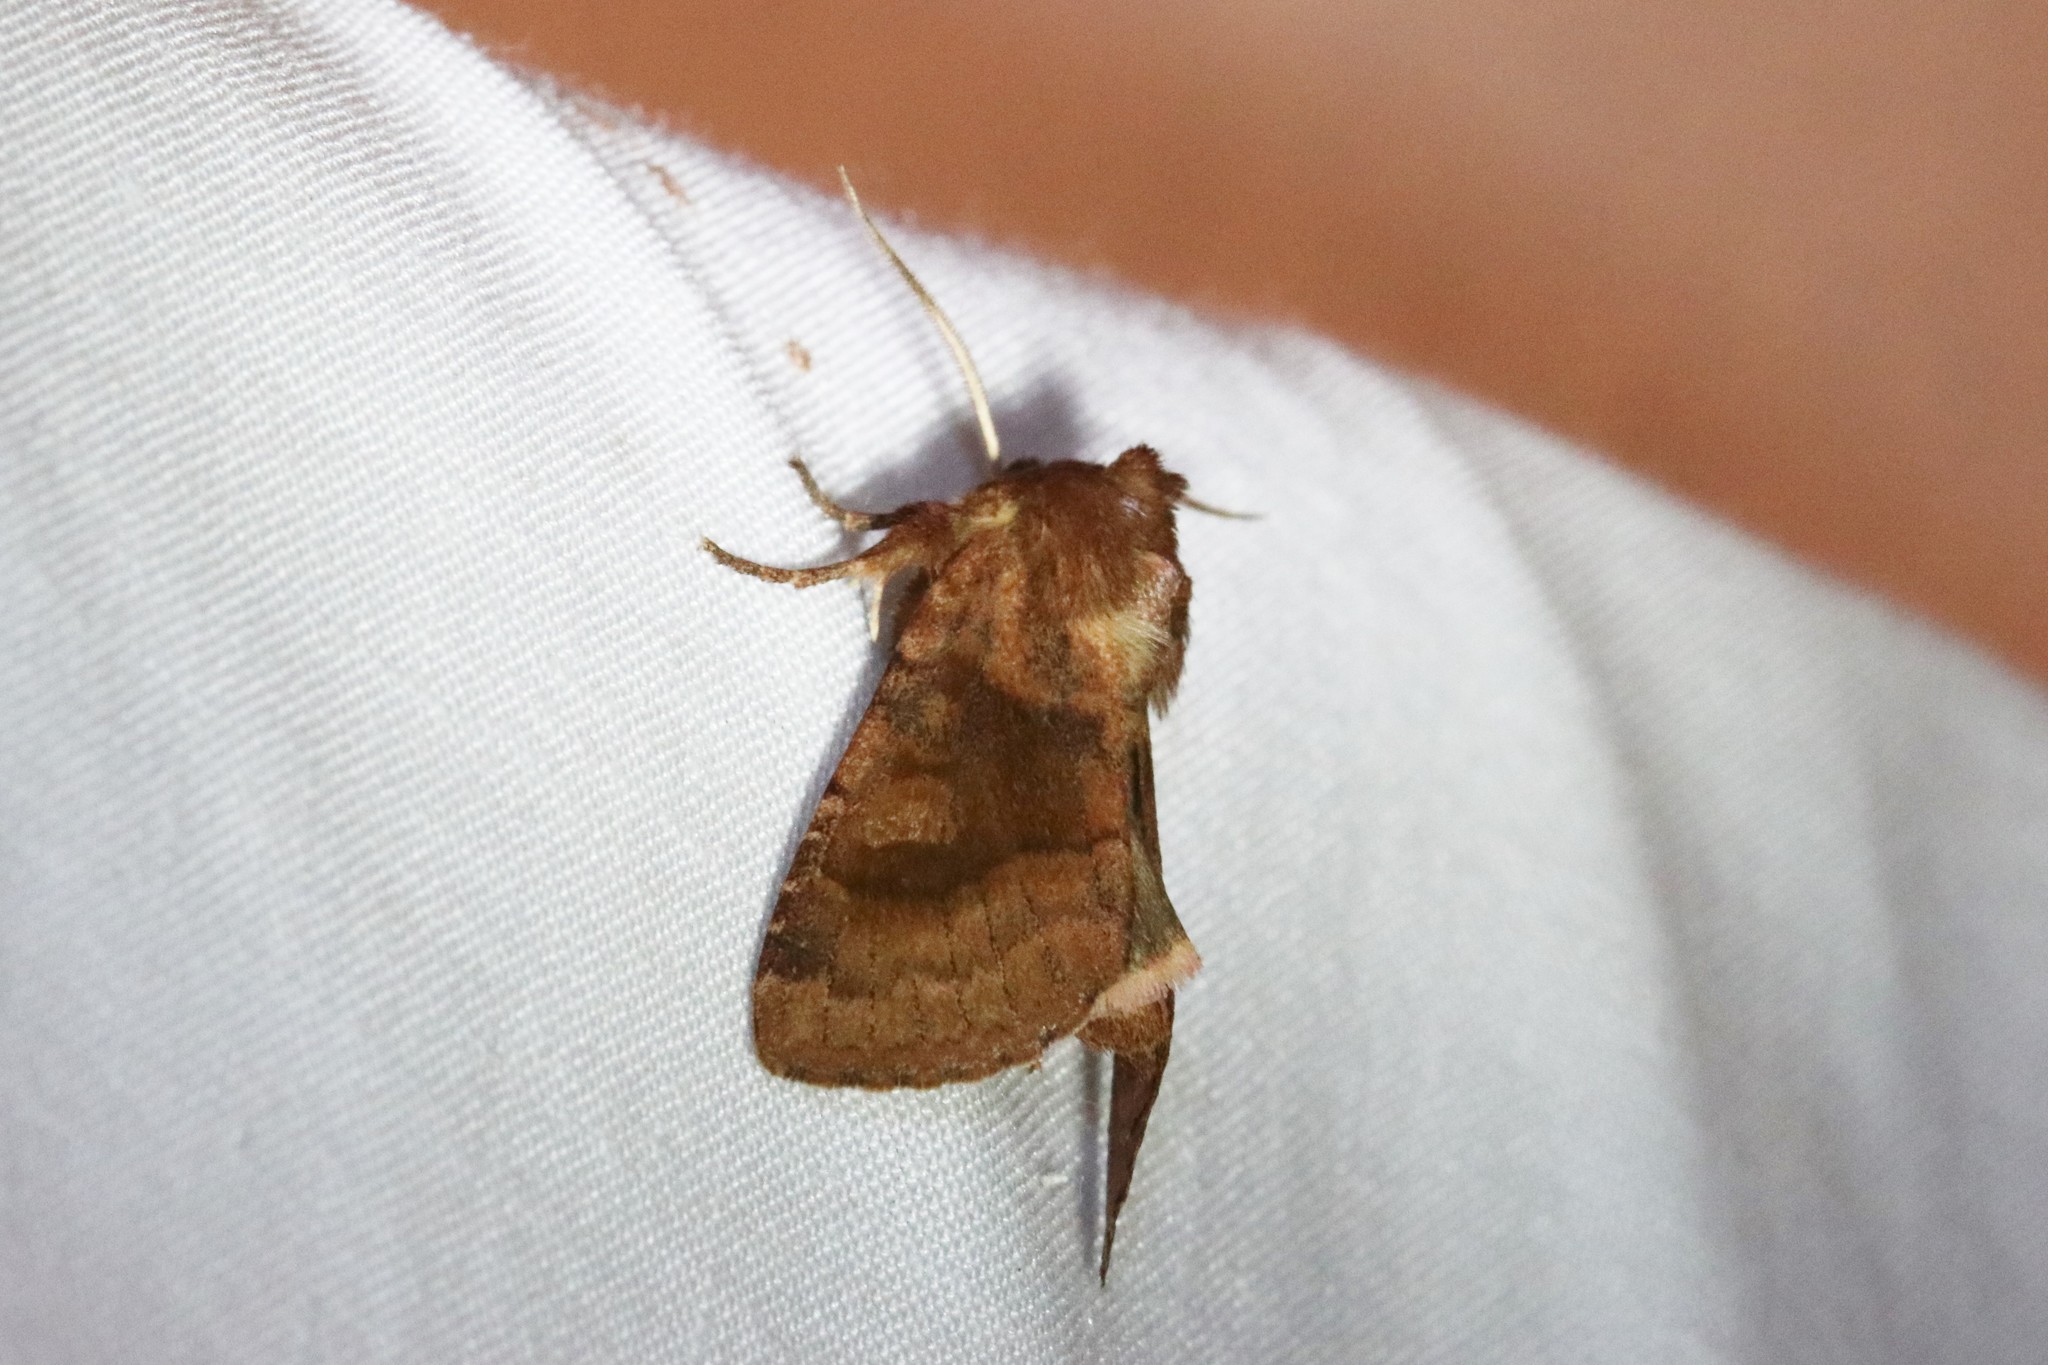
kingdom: Animalia
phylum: Arthropoda
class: Insecta
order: Lepidoptera
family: Noctuidae
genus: Nephelodes
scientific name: Nephelodes minians
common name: Bronzed cutworm
